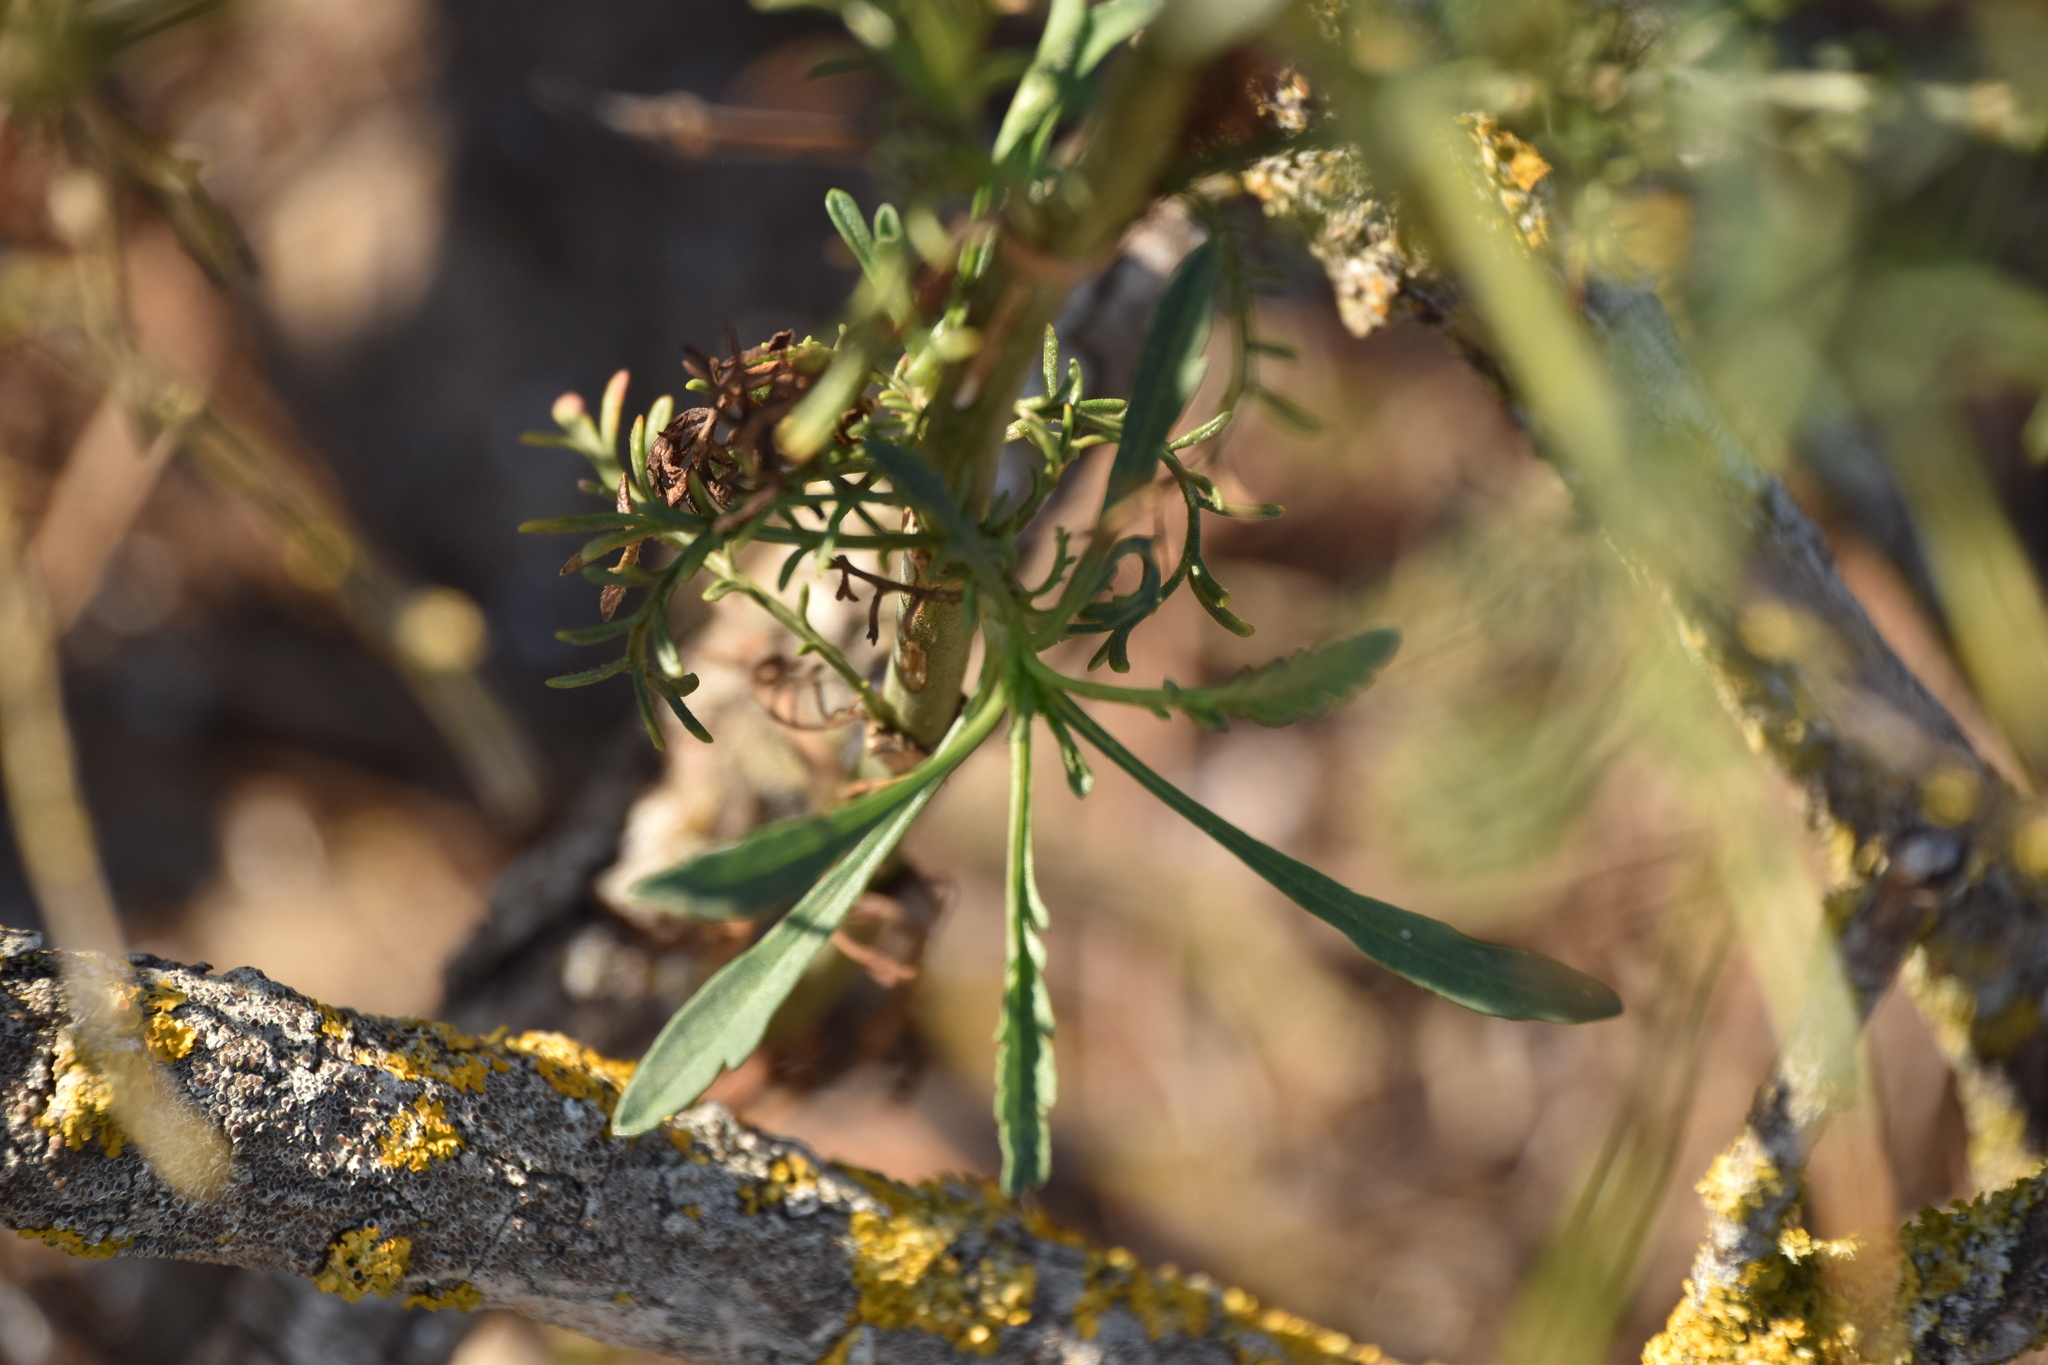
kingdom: Plantae
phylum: Tracheophyta
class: Magnoliopsida
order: Dipsacales
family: Caprifoliaceae
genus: Pycnocomon
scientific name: Pycnocomon rutifolium
